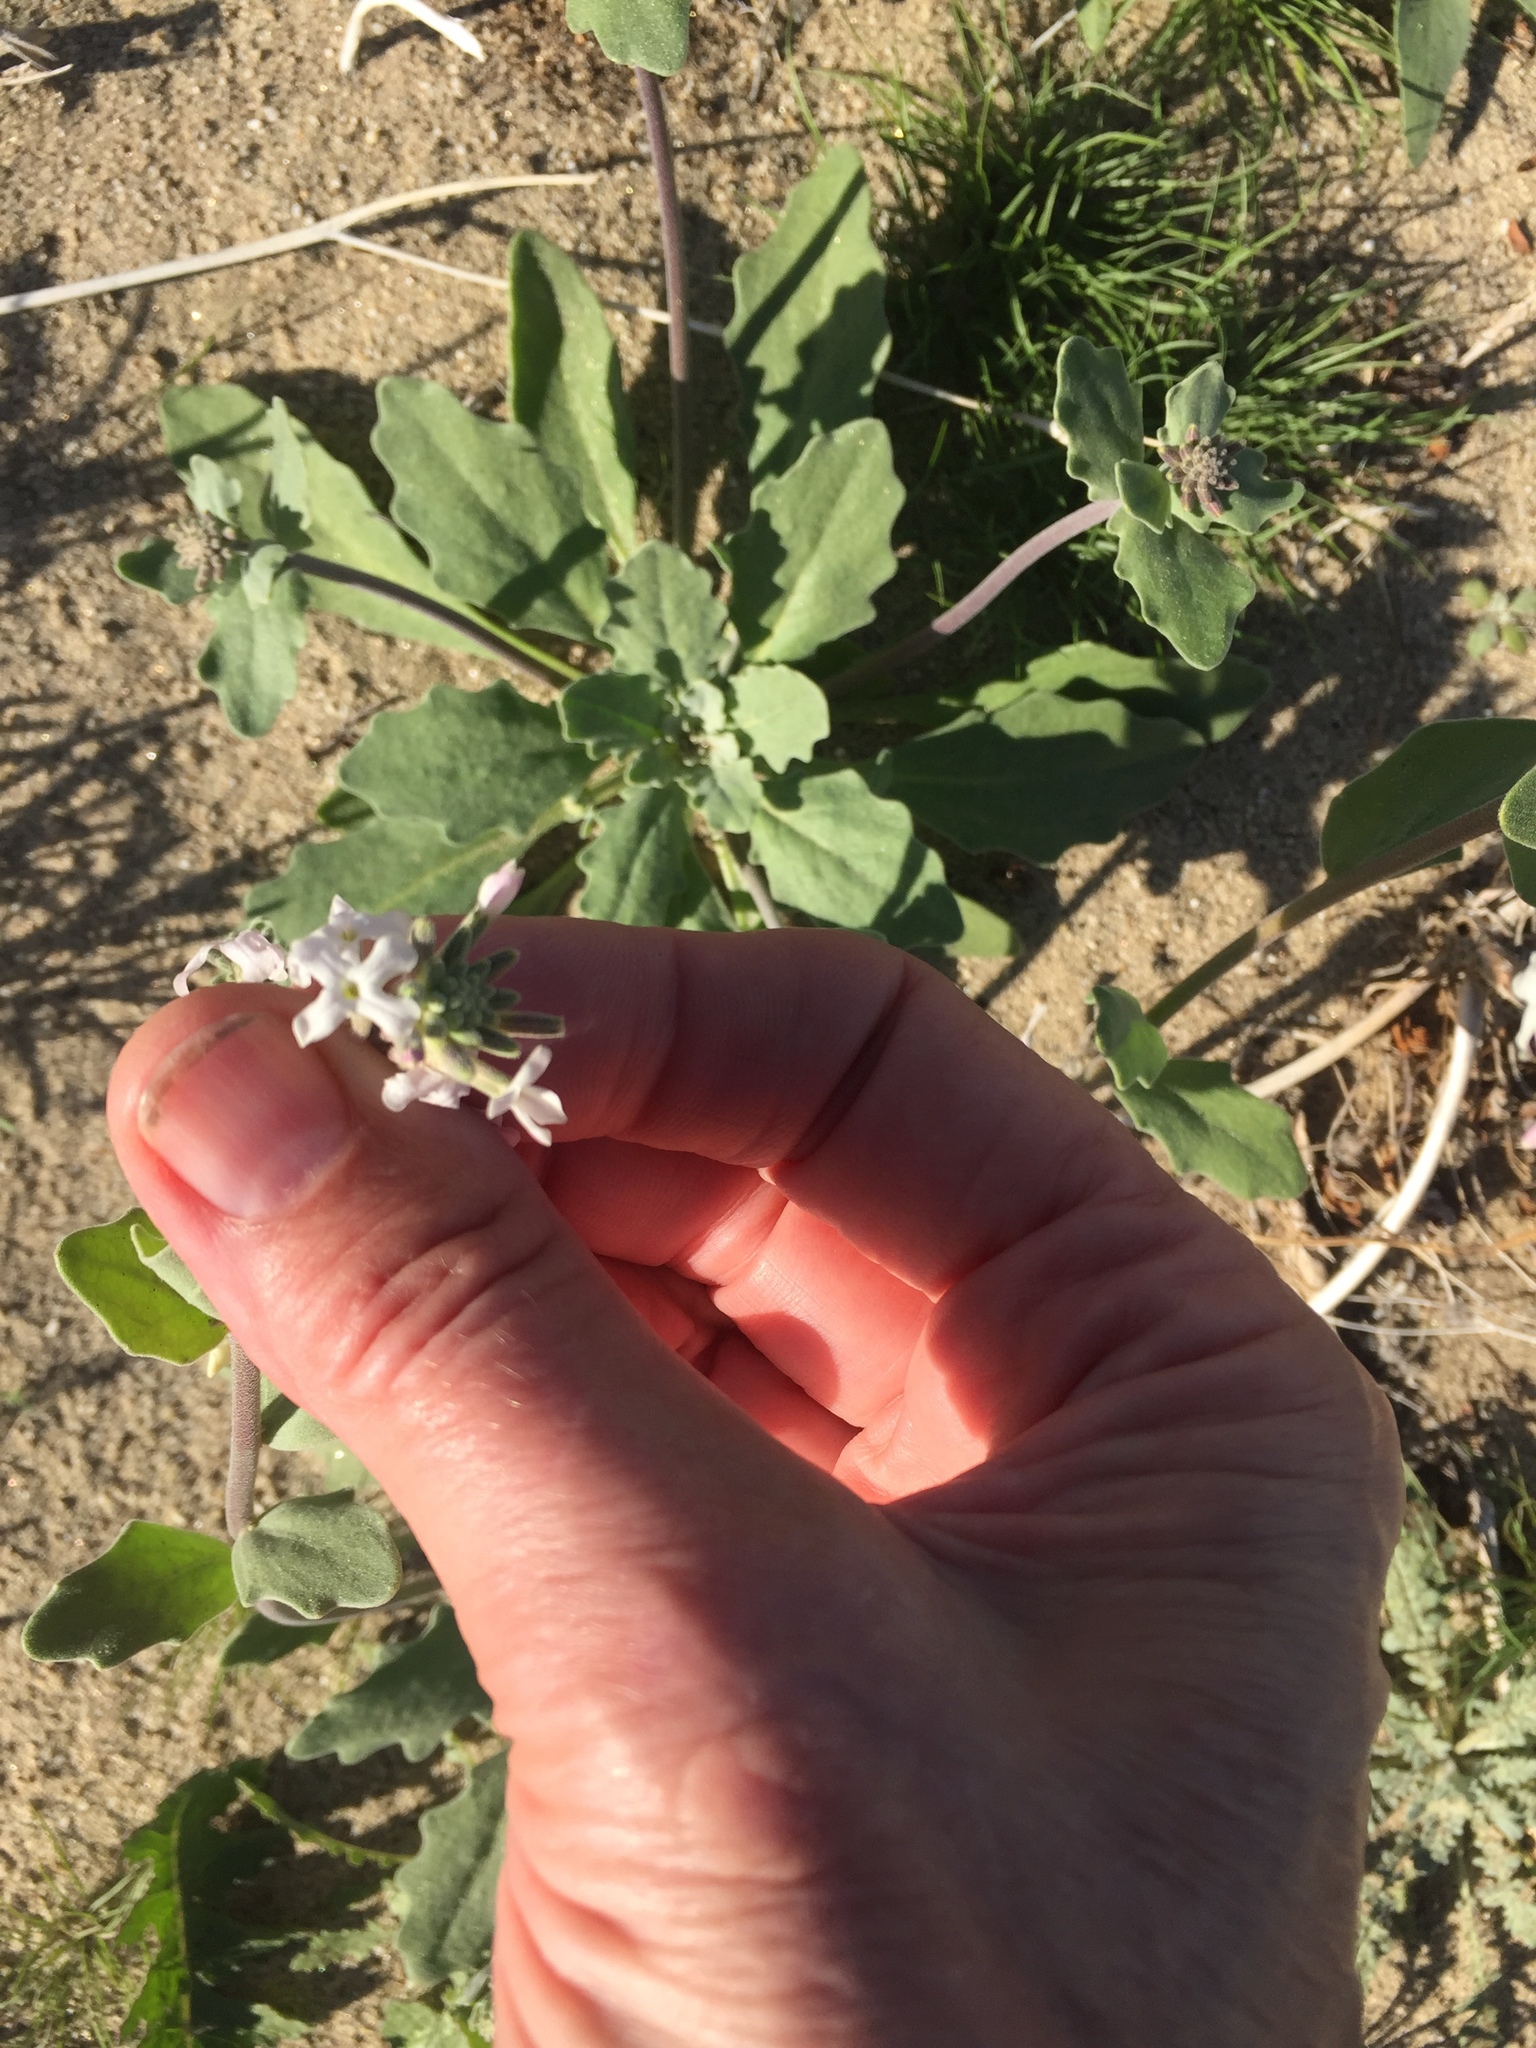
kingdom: Plantae
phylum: Tracheophyta
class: Magnoliopsida
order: Brassicales
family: Brassicaceae
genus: Dithyrea
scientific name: Dithyrea californica
